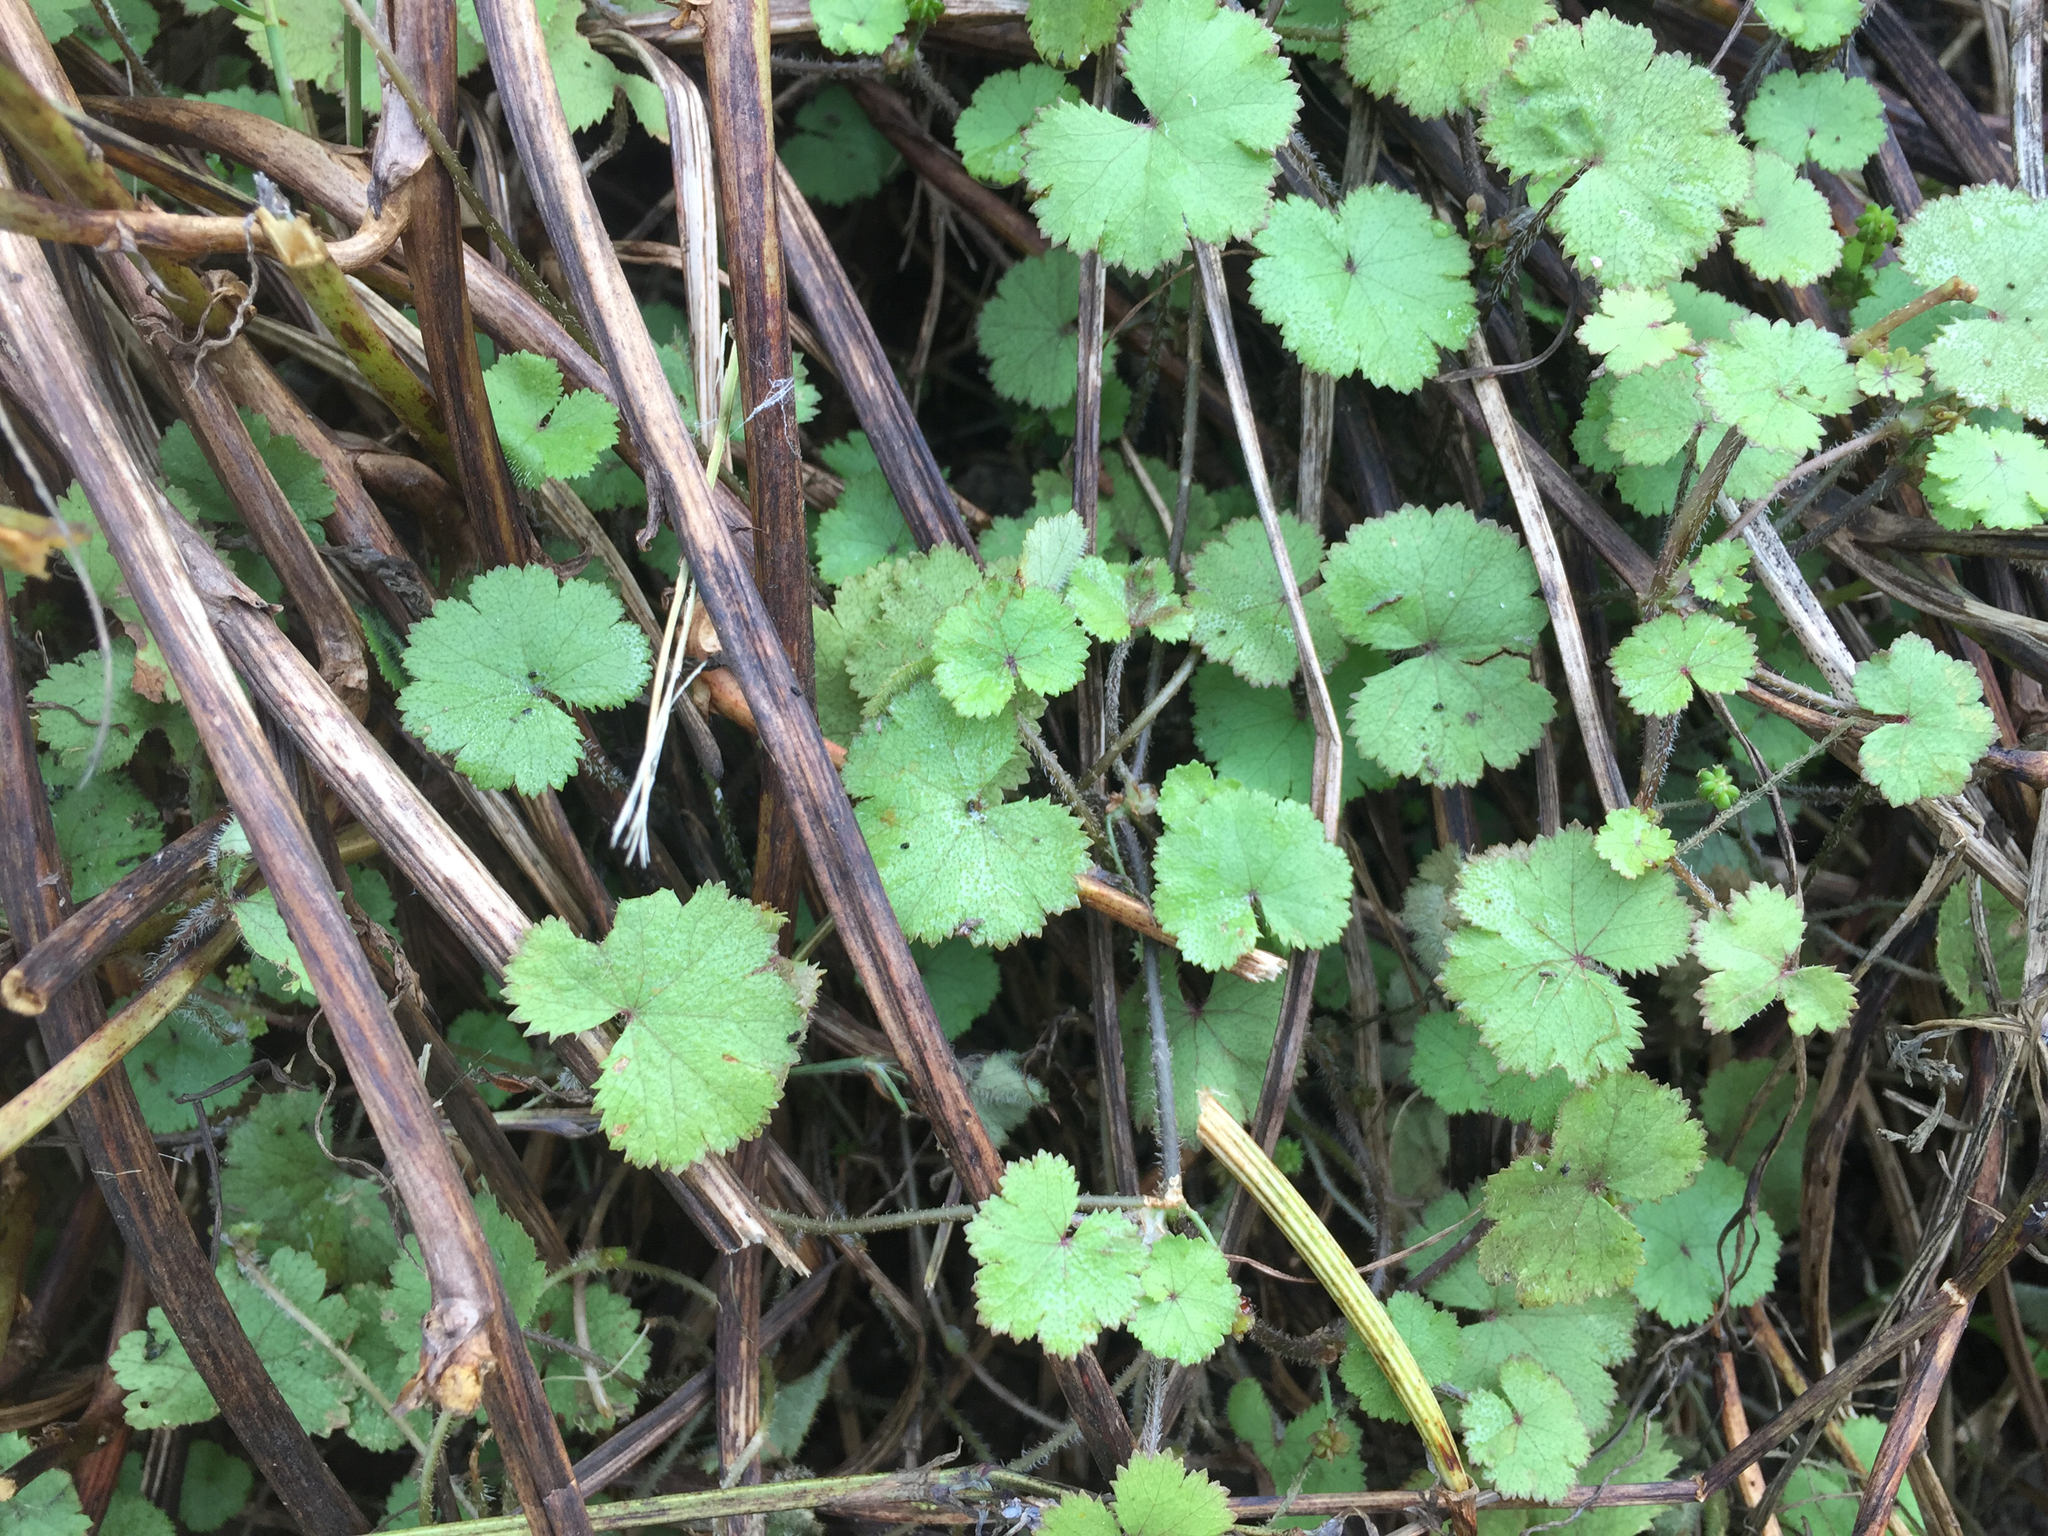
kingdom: Plantae
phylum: Tracheophyta
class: Magnoliopsida
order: Apiales
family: Araliaceae
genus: Hydrocotyle
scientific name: Hydrocotyle moschata
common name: Hairy pennywort
